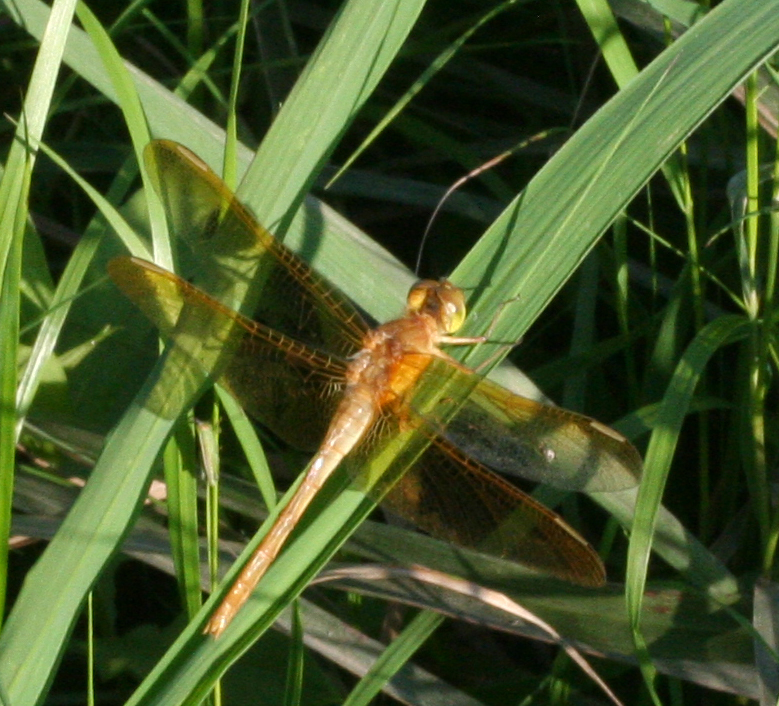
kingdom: Animalia
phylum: Arthropoda
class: Insecta
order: Odonata
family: Libellulidae
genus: Sympetrum
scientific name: Sympetrum uniforme
